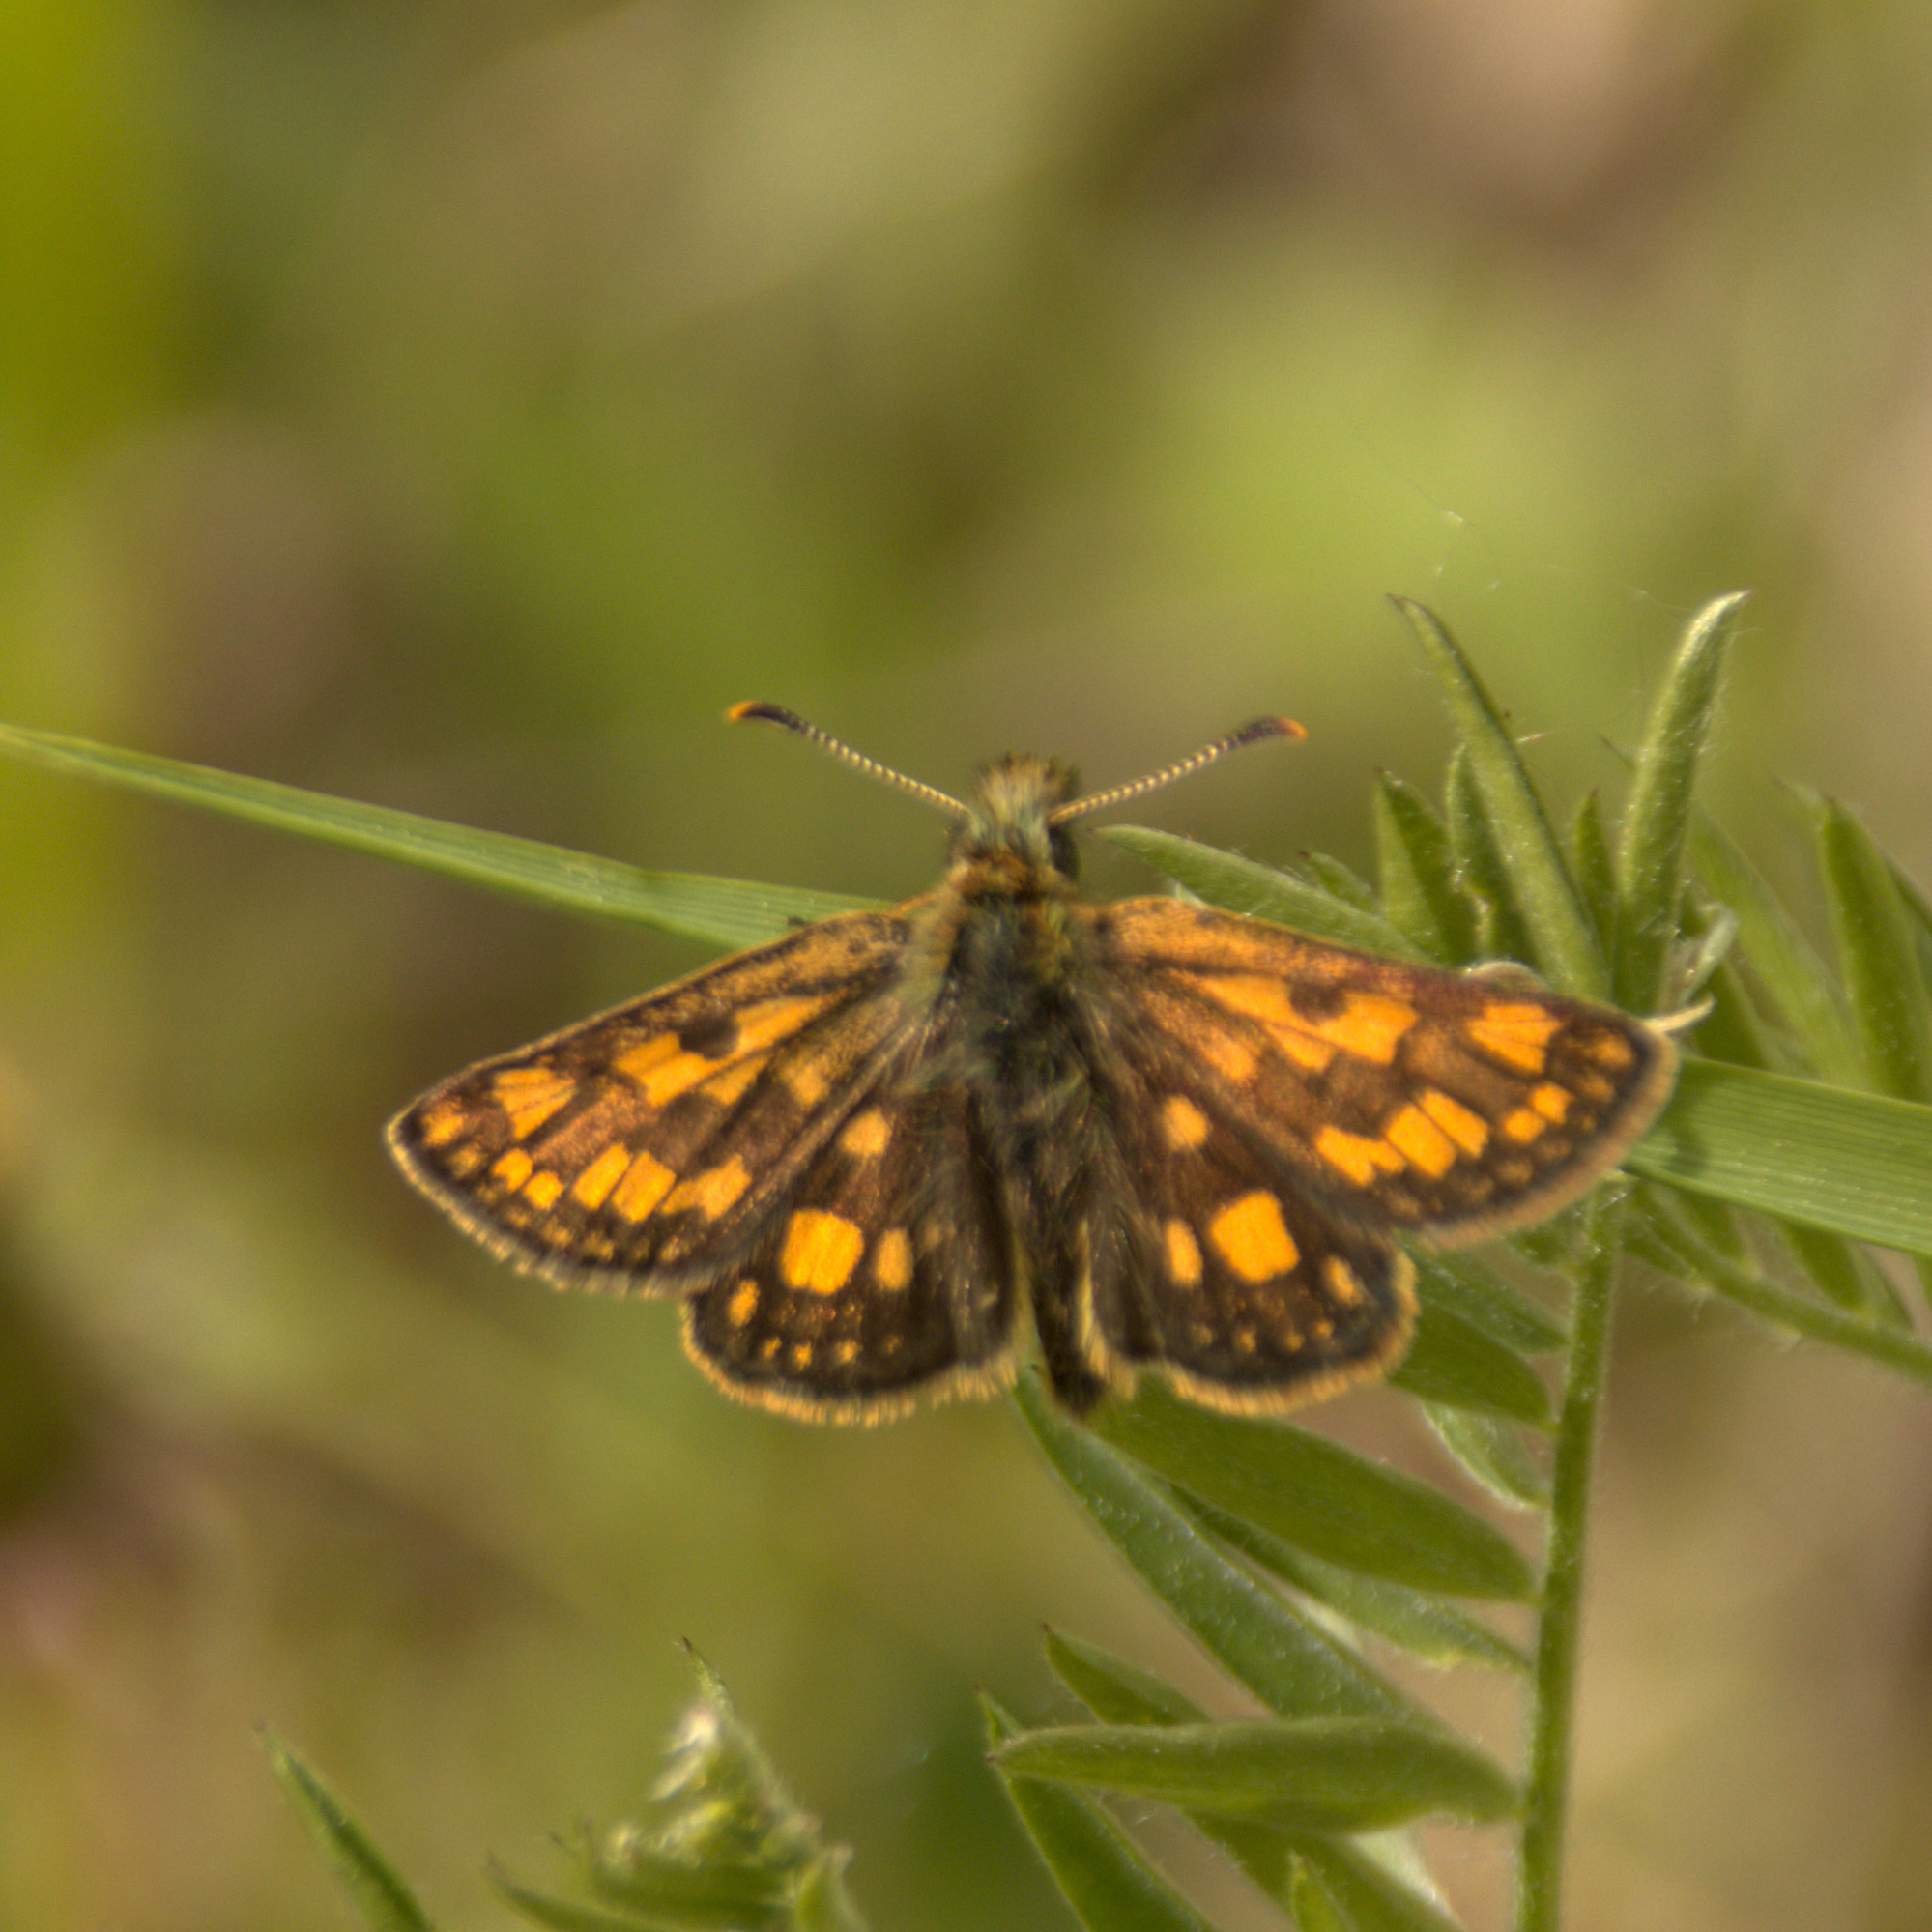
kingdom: Animalia
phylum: Arthropoda
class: Insecta
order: Lepidoptera
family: Hesperiidae
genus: Carterocephalus
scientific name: Carterocephalus palaemon
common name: Chequered skipper
